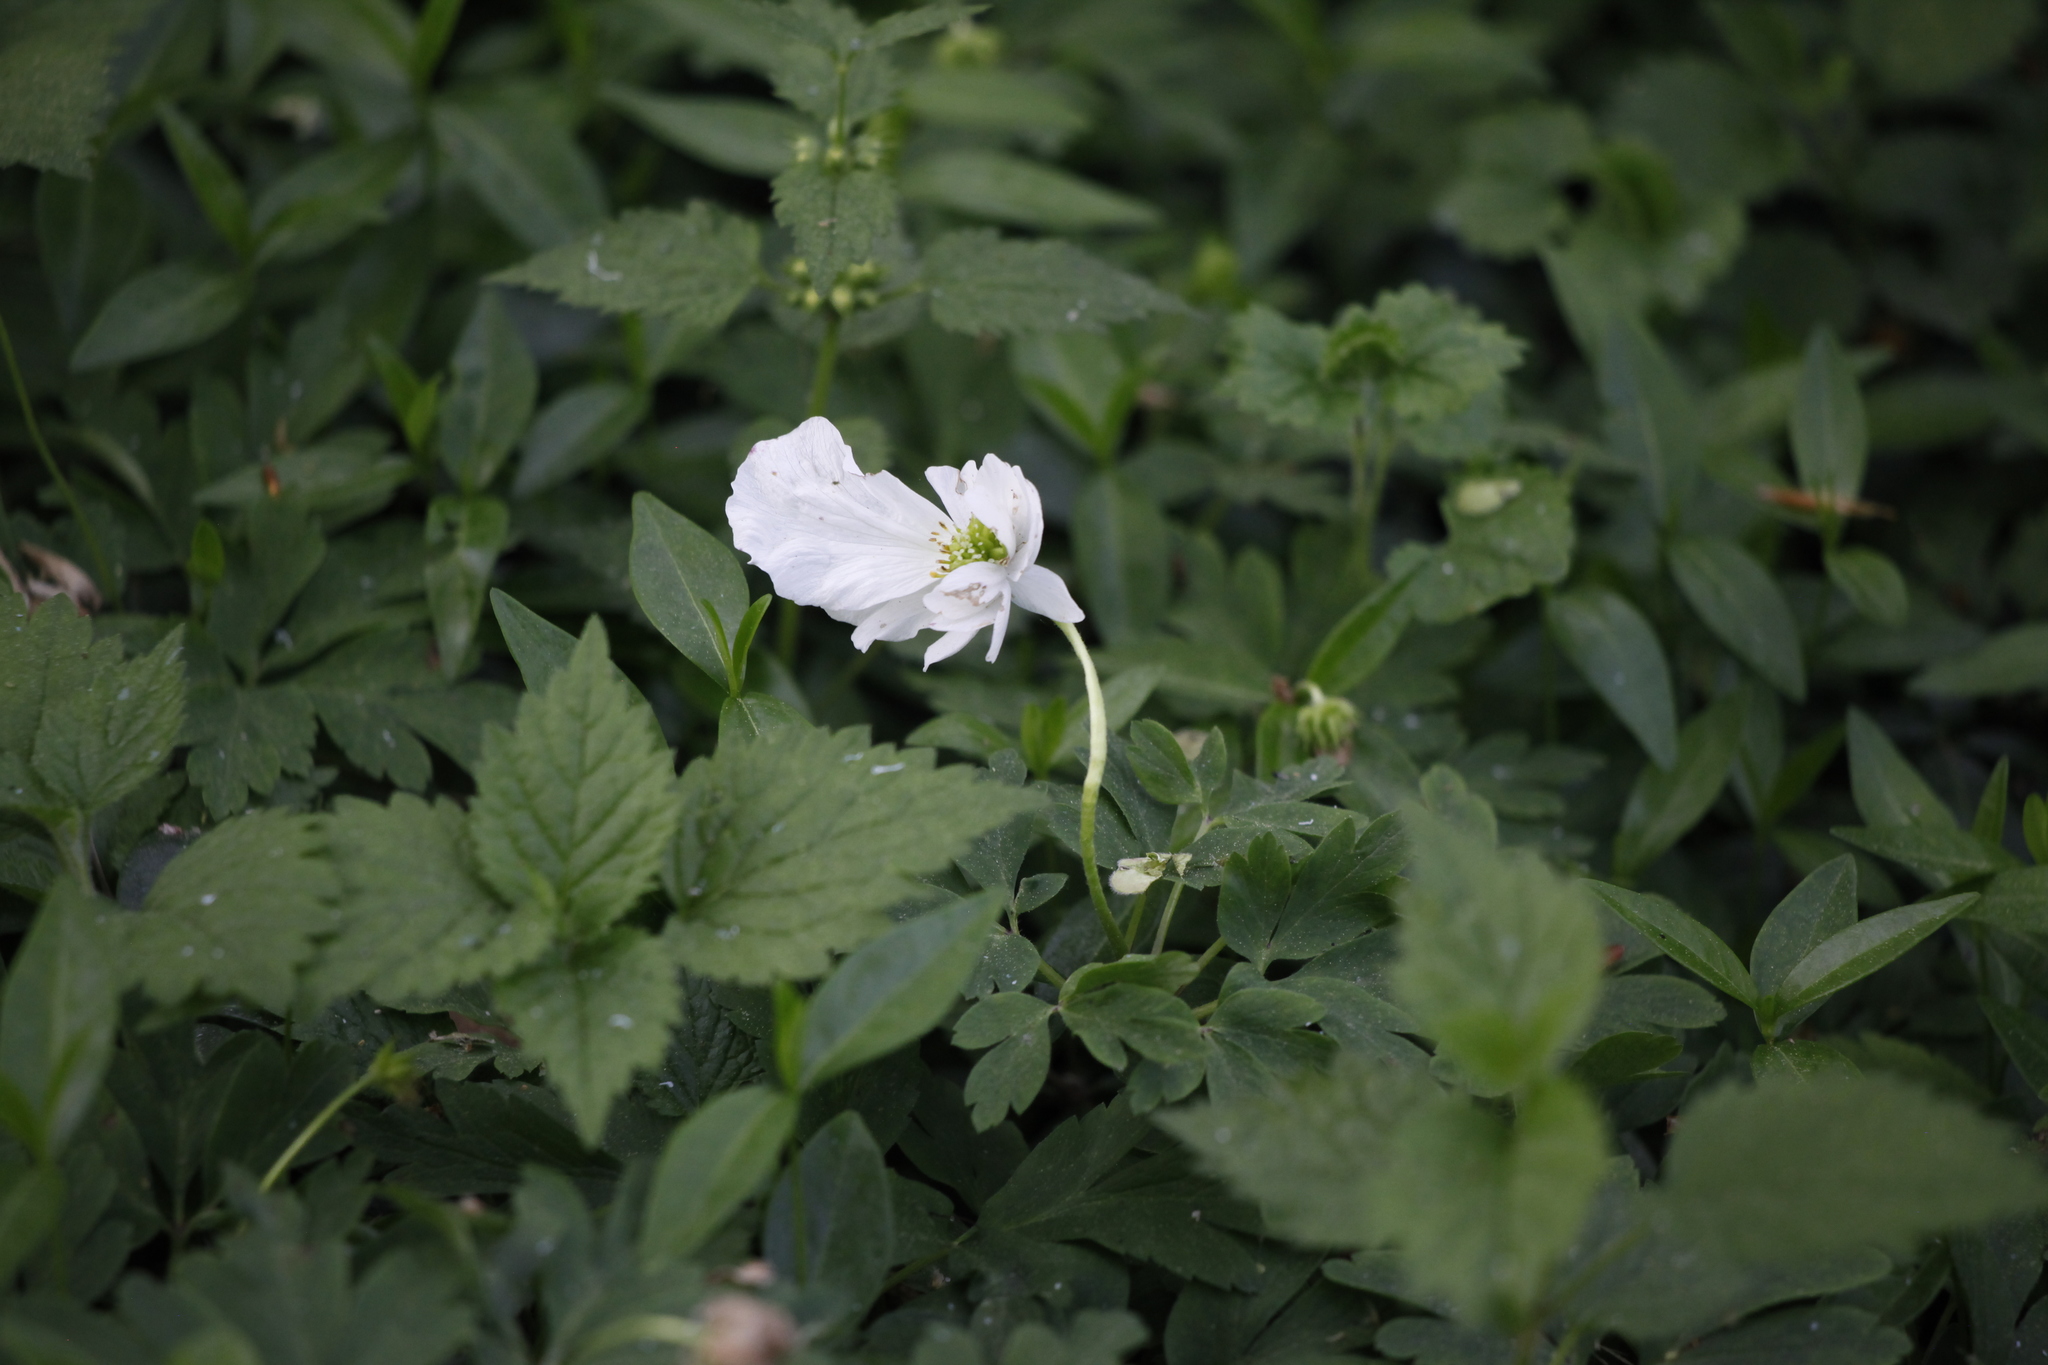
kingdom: Plantae
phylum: Tracheophyta
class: Magnoliopsida
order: Ranunculales
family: Ranunculaceae
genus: Anemone
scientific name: Anemone nemorosa
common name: Wood anemone
